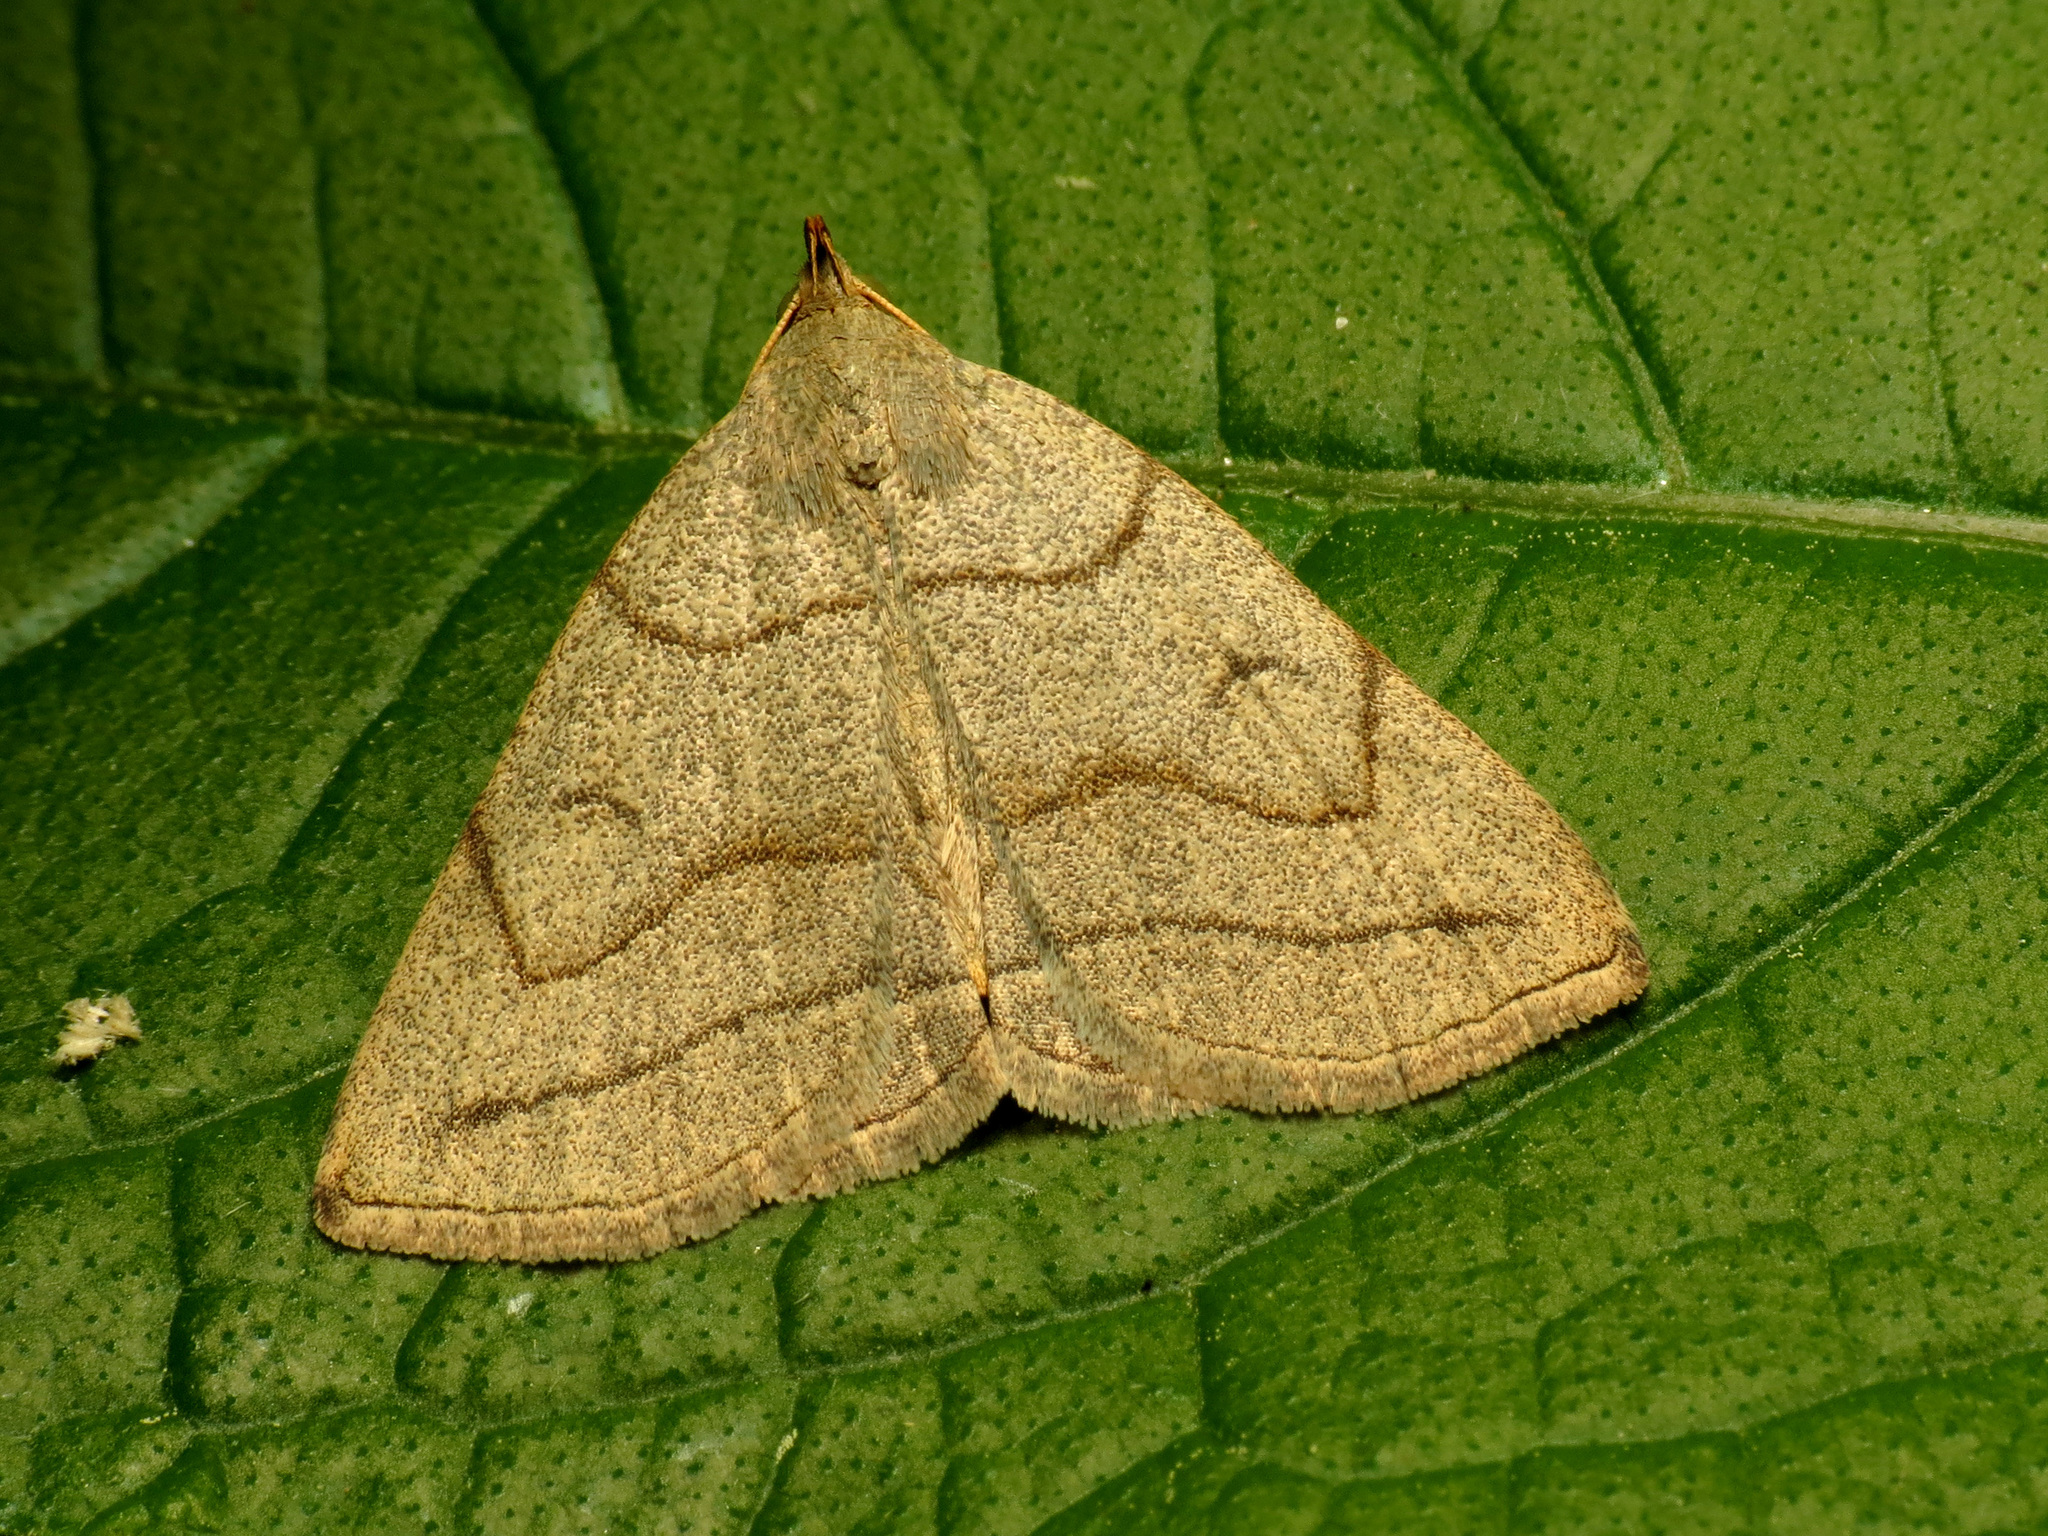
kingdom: Animalia
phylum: Arthropoda
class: Insecta
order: Lepidoptera
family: Erebidae
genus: Zanclognatha
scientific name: Zanclognatha pedipilalis
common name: Grayish fan-foot
